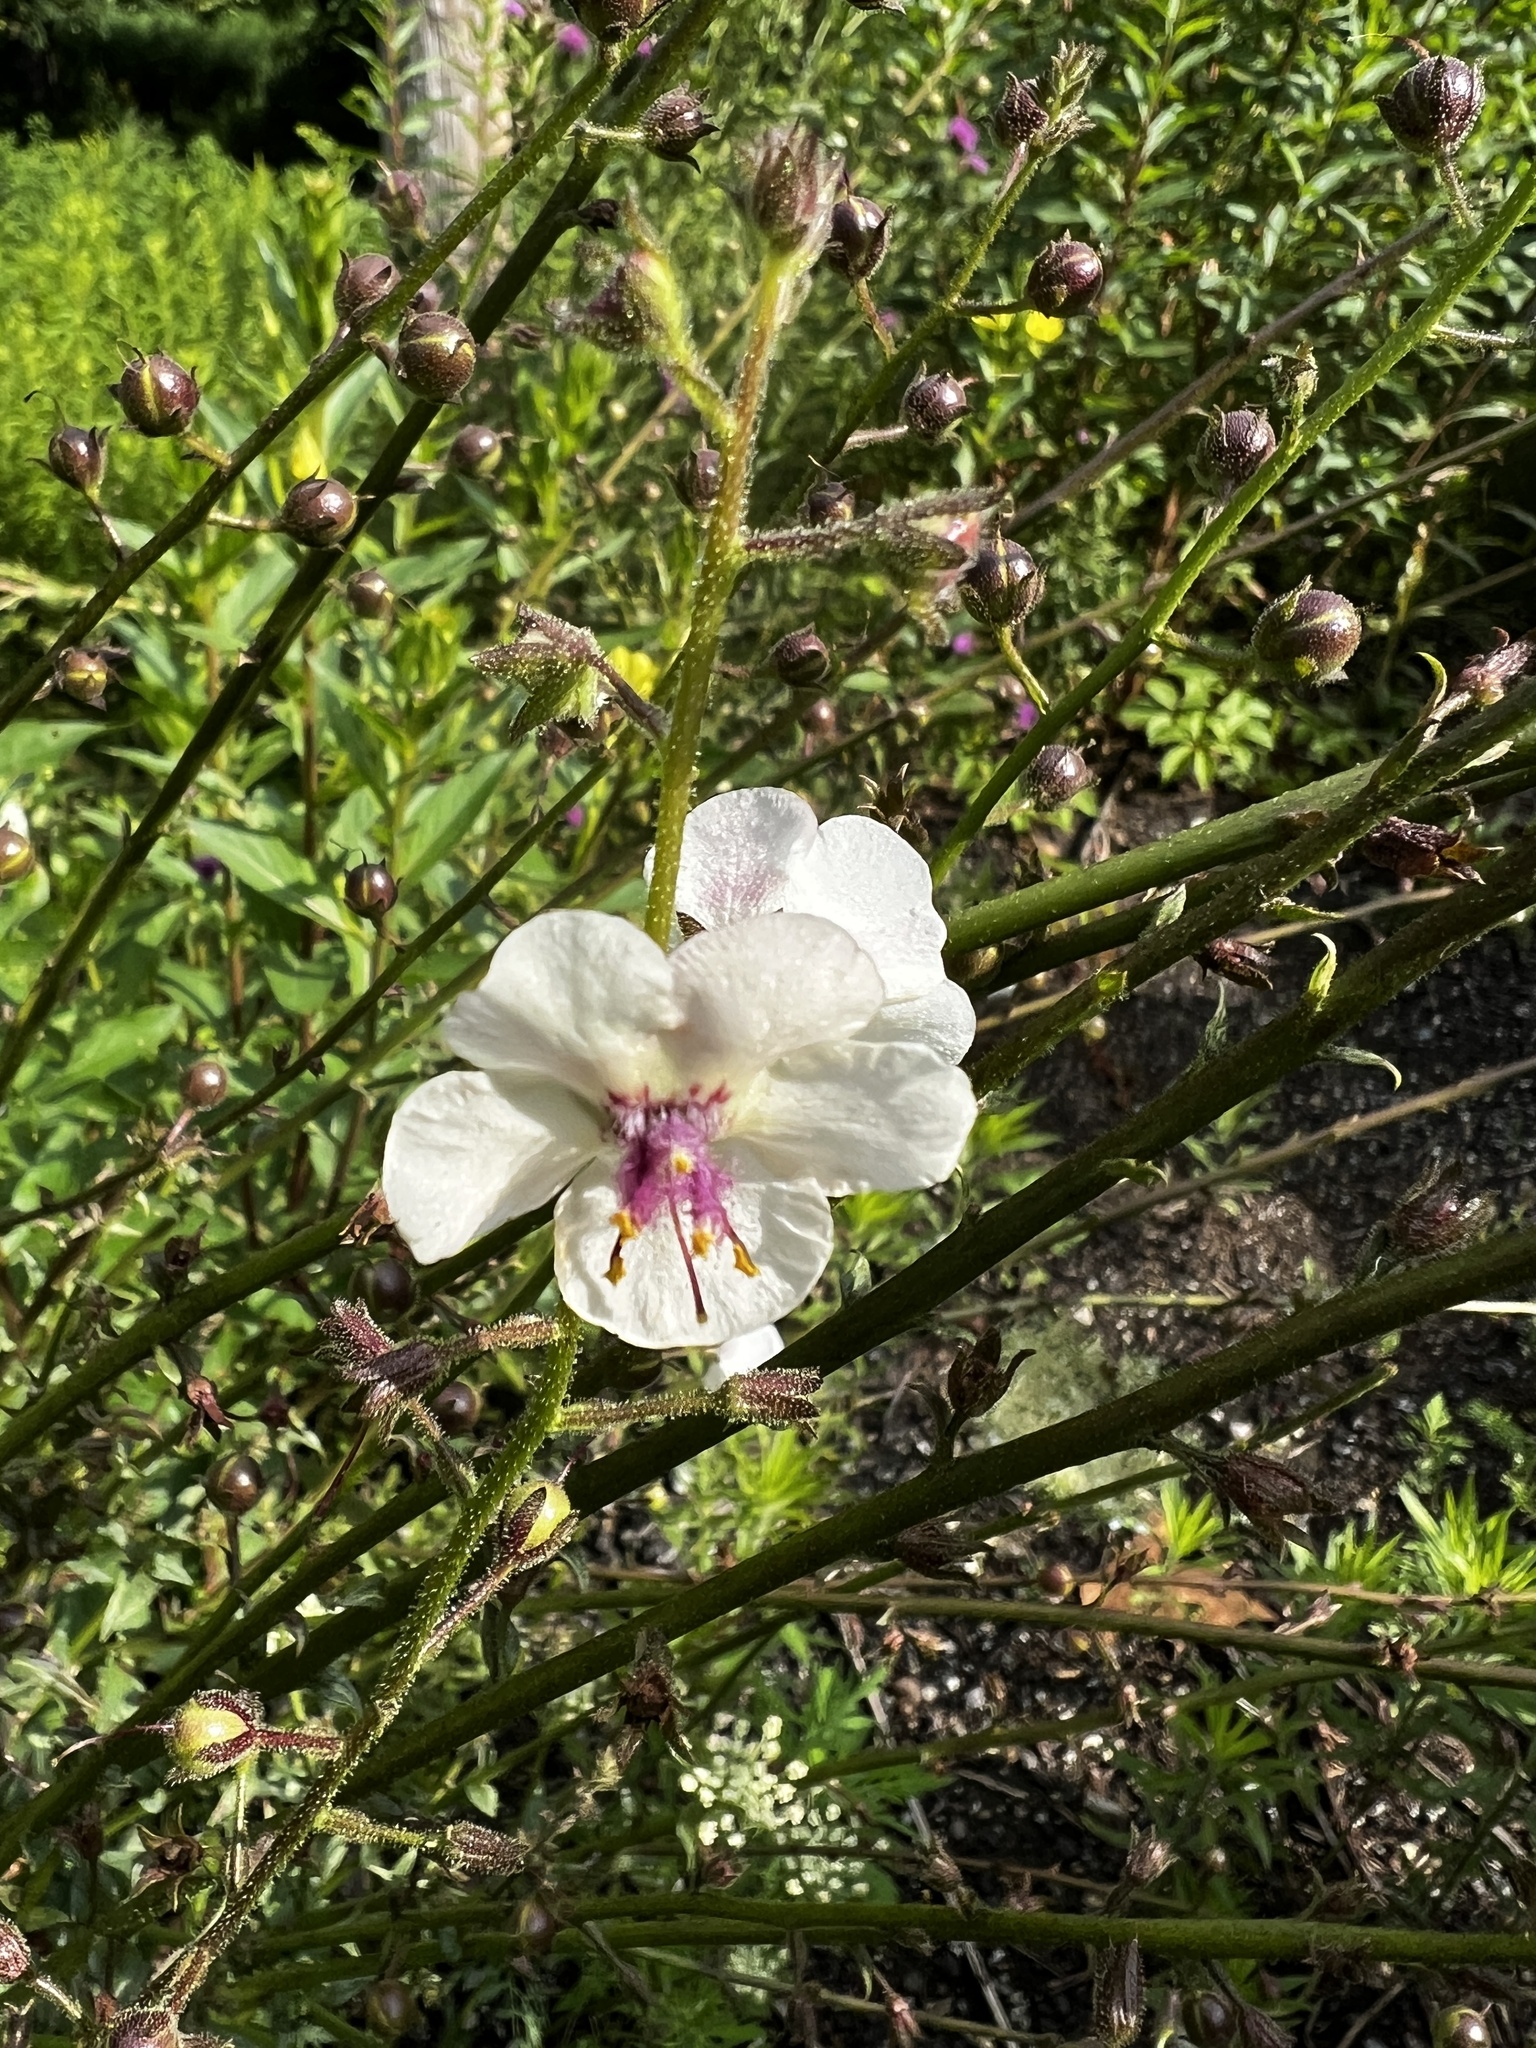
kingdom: Plantae
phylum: Tracheophyta
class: Magnoliopsida
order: Lamiales
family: Scrophulariaceae
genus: Verbascum
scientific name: Verbascum blattaria
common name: Moth mullein
